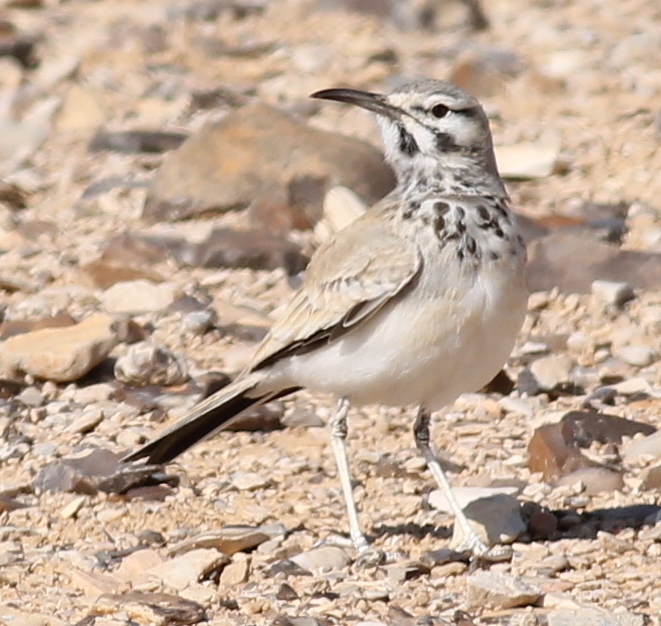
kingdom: Animalia
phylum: Chordata
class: Aves
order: Passeriformes
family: Alaudidae
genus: Alaemon
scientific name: Alaemon alaudipes
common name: Greater hoopoe-lark
